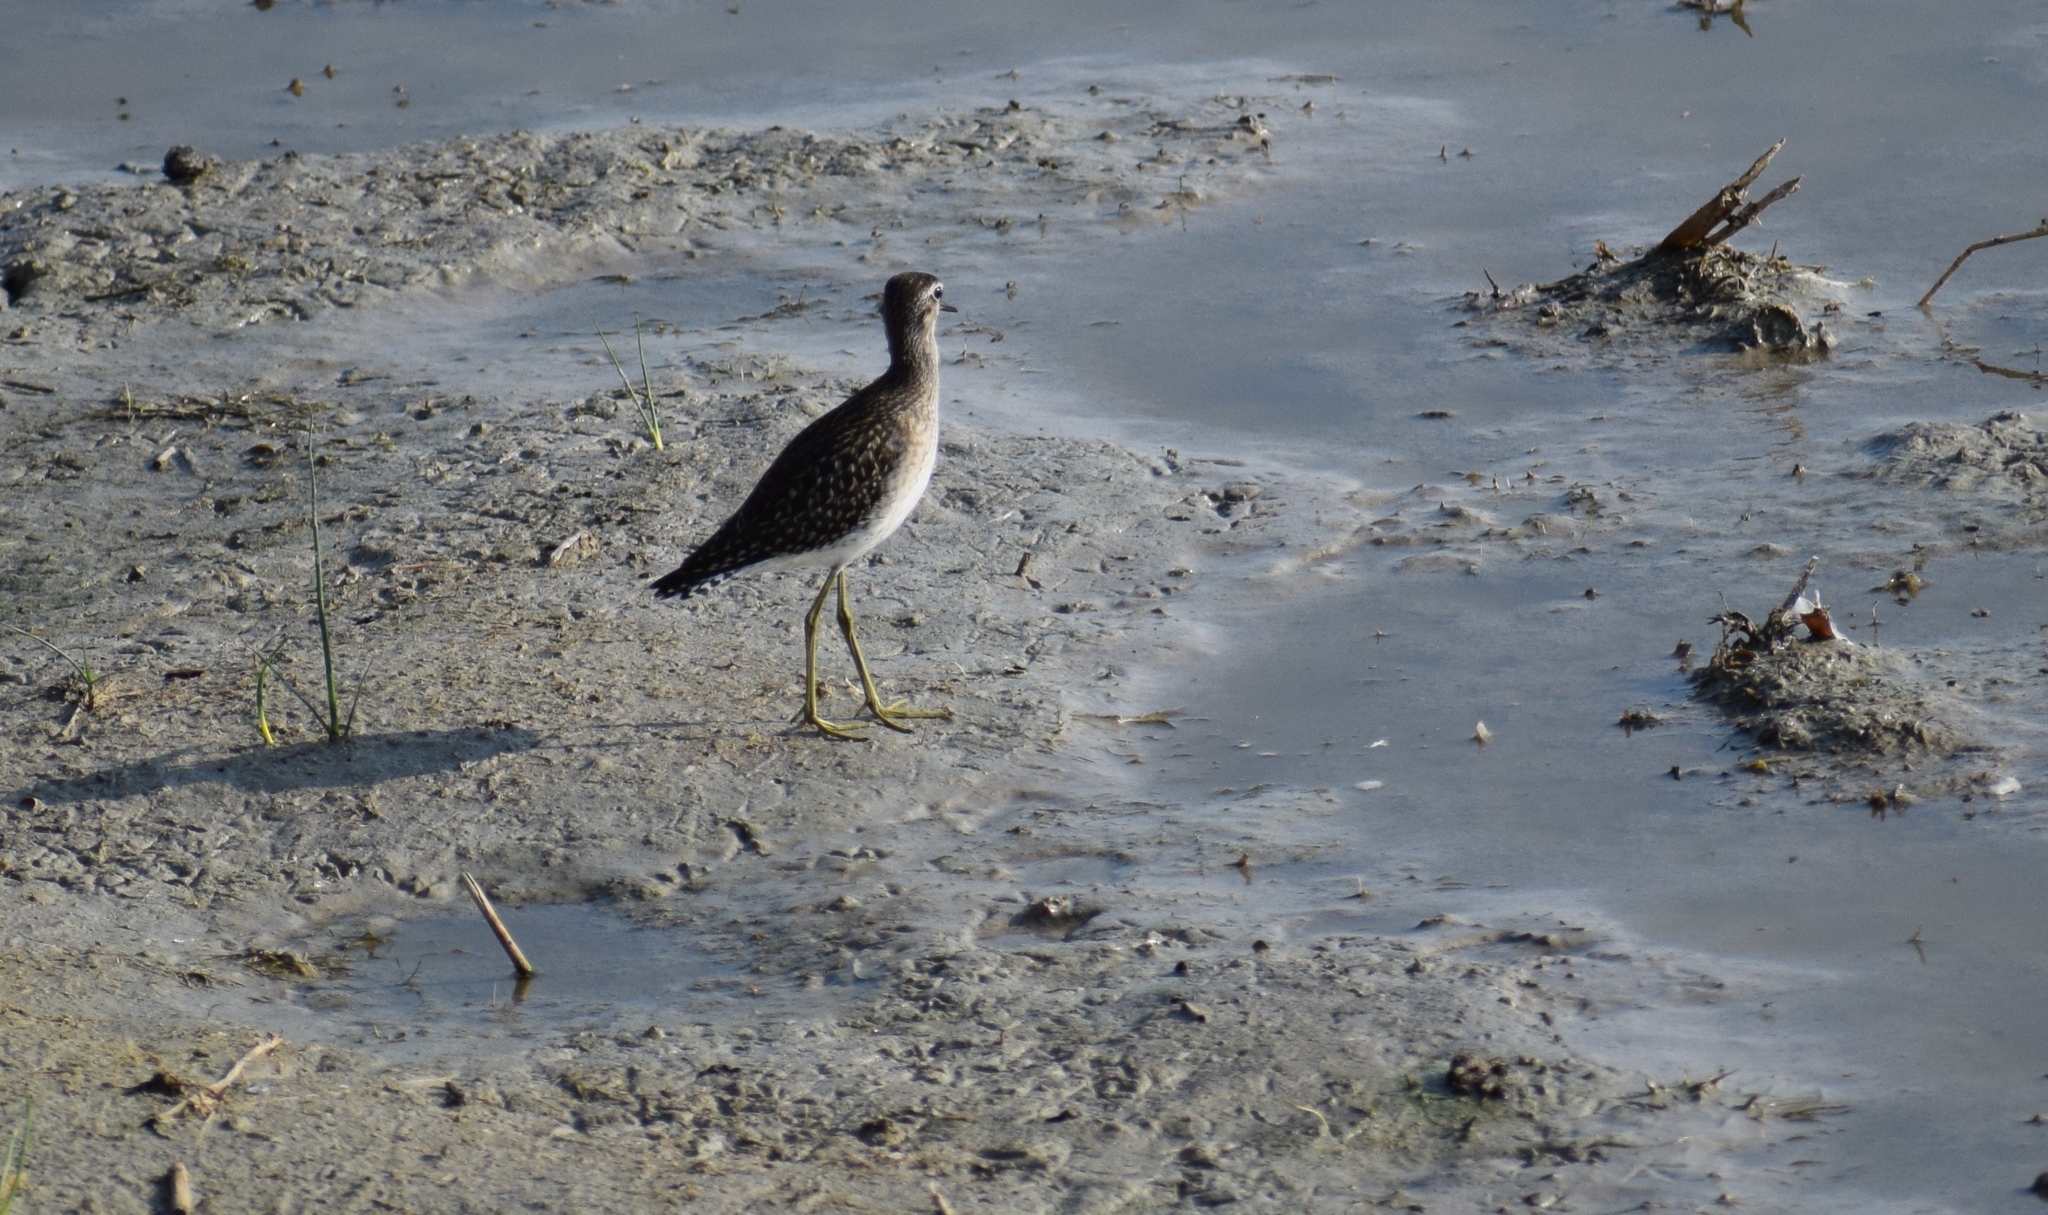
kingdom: Animalia
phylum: Chordata
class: Aves
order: Charadriiformes
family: Scolopacidae
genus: Tringa
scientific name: Tringa glareola
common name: Wood sandpiper
